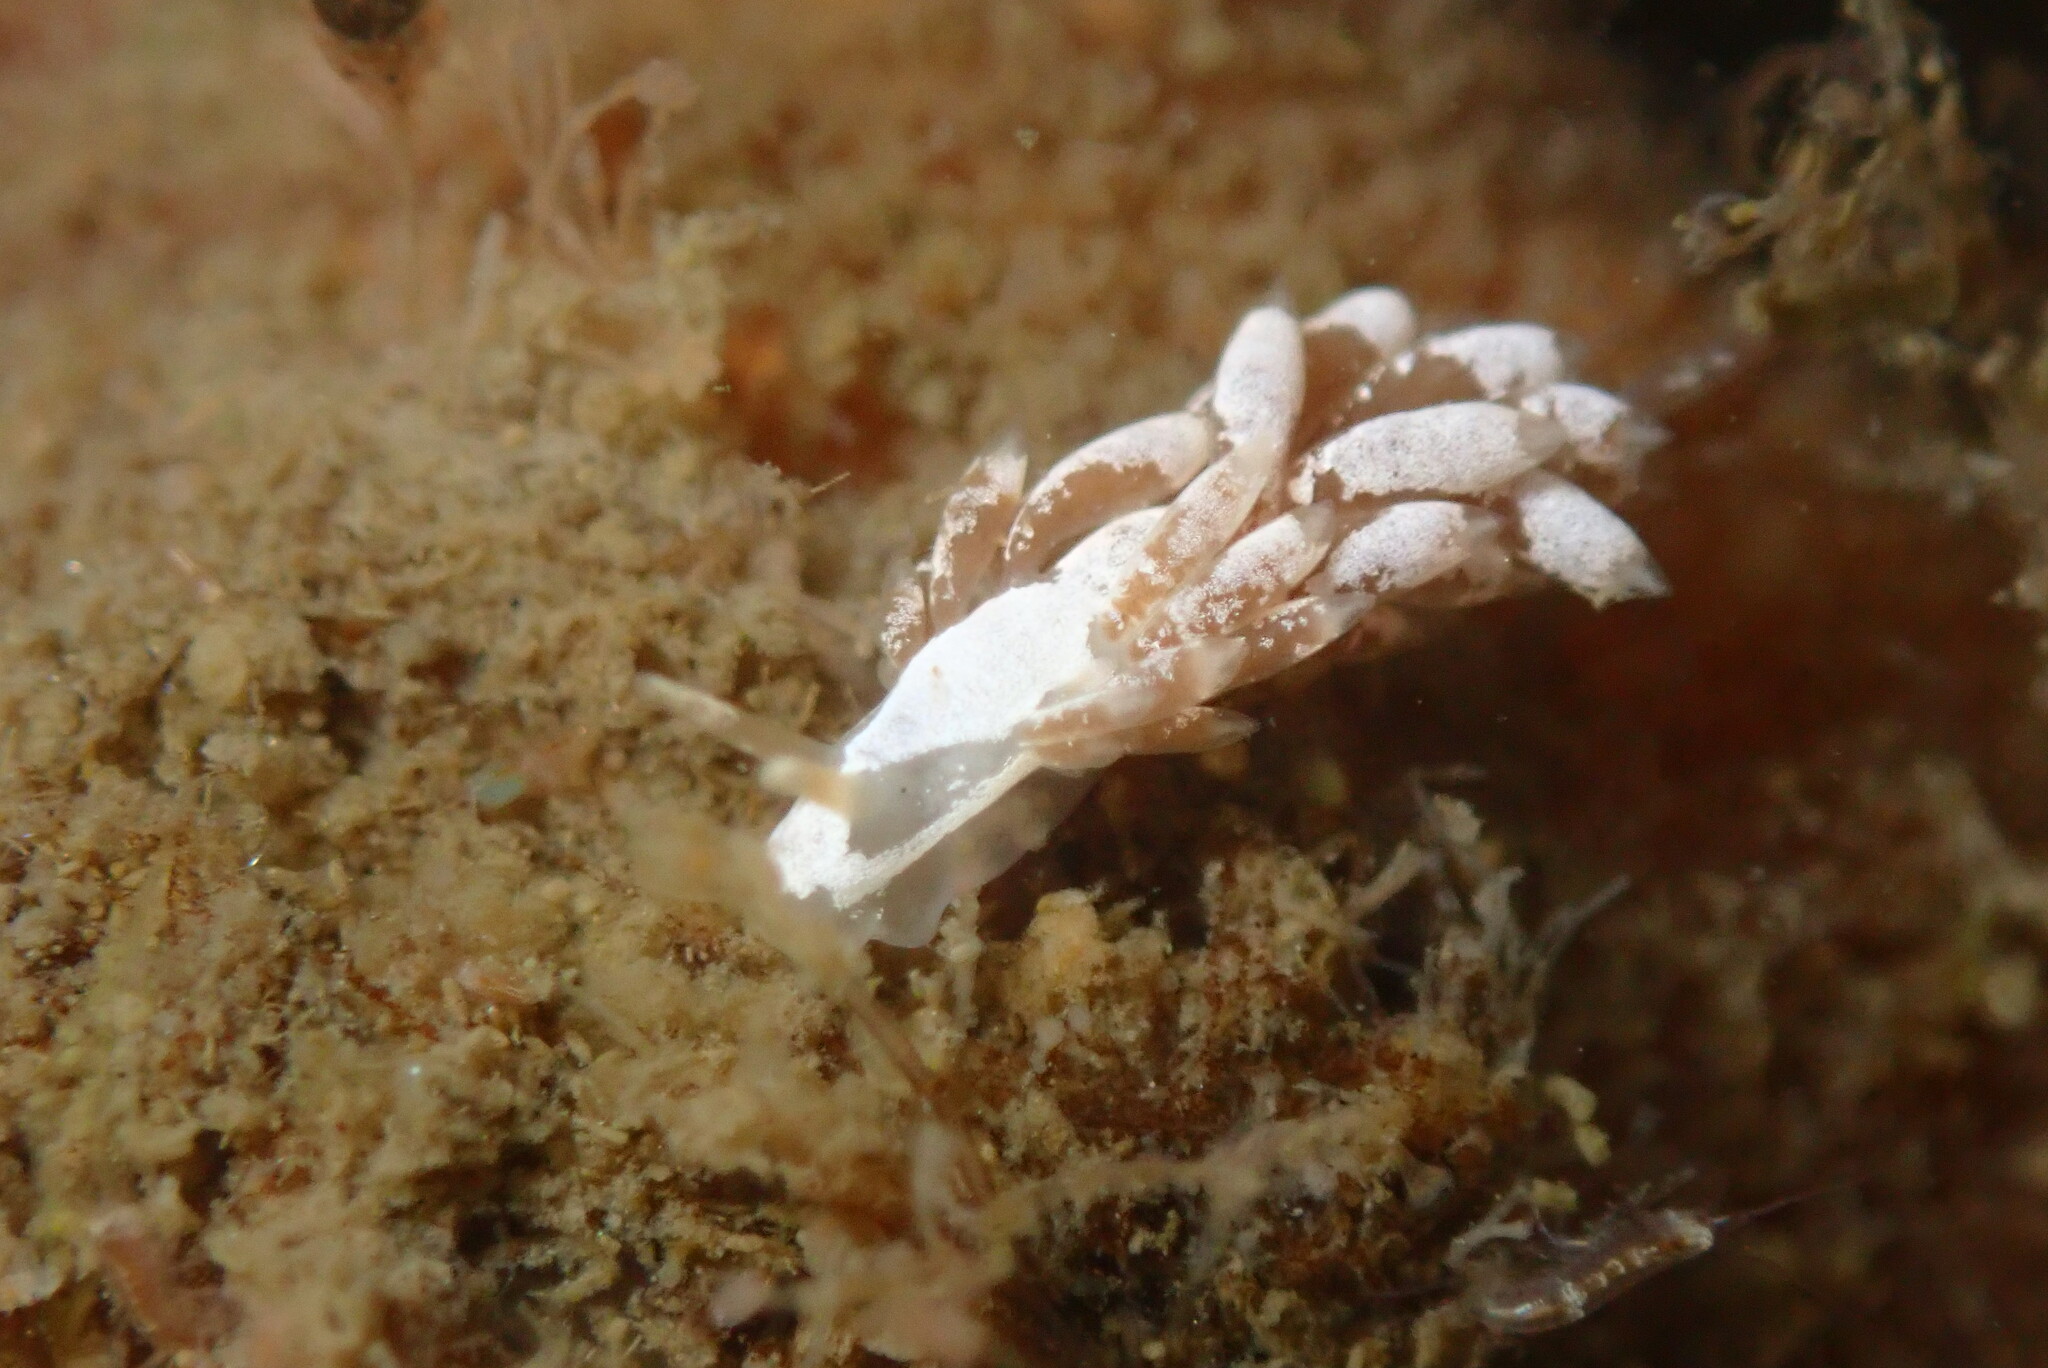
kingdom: Animalia
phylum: Mollusca
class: Gastropoda
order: Nudibranchia
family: Trinchesiidae
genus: Trinchesia
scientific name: Trinchesia albocrusta
